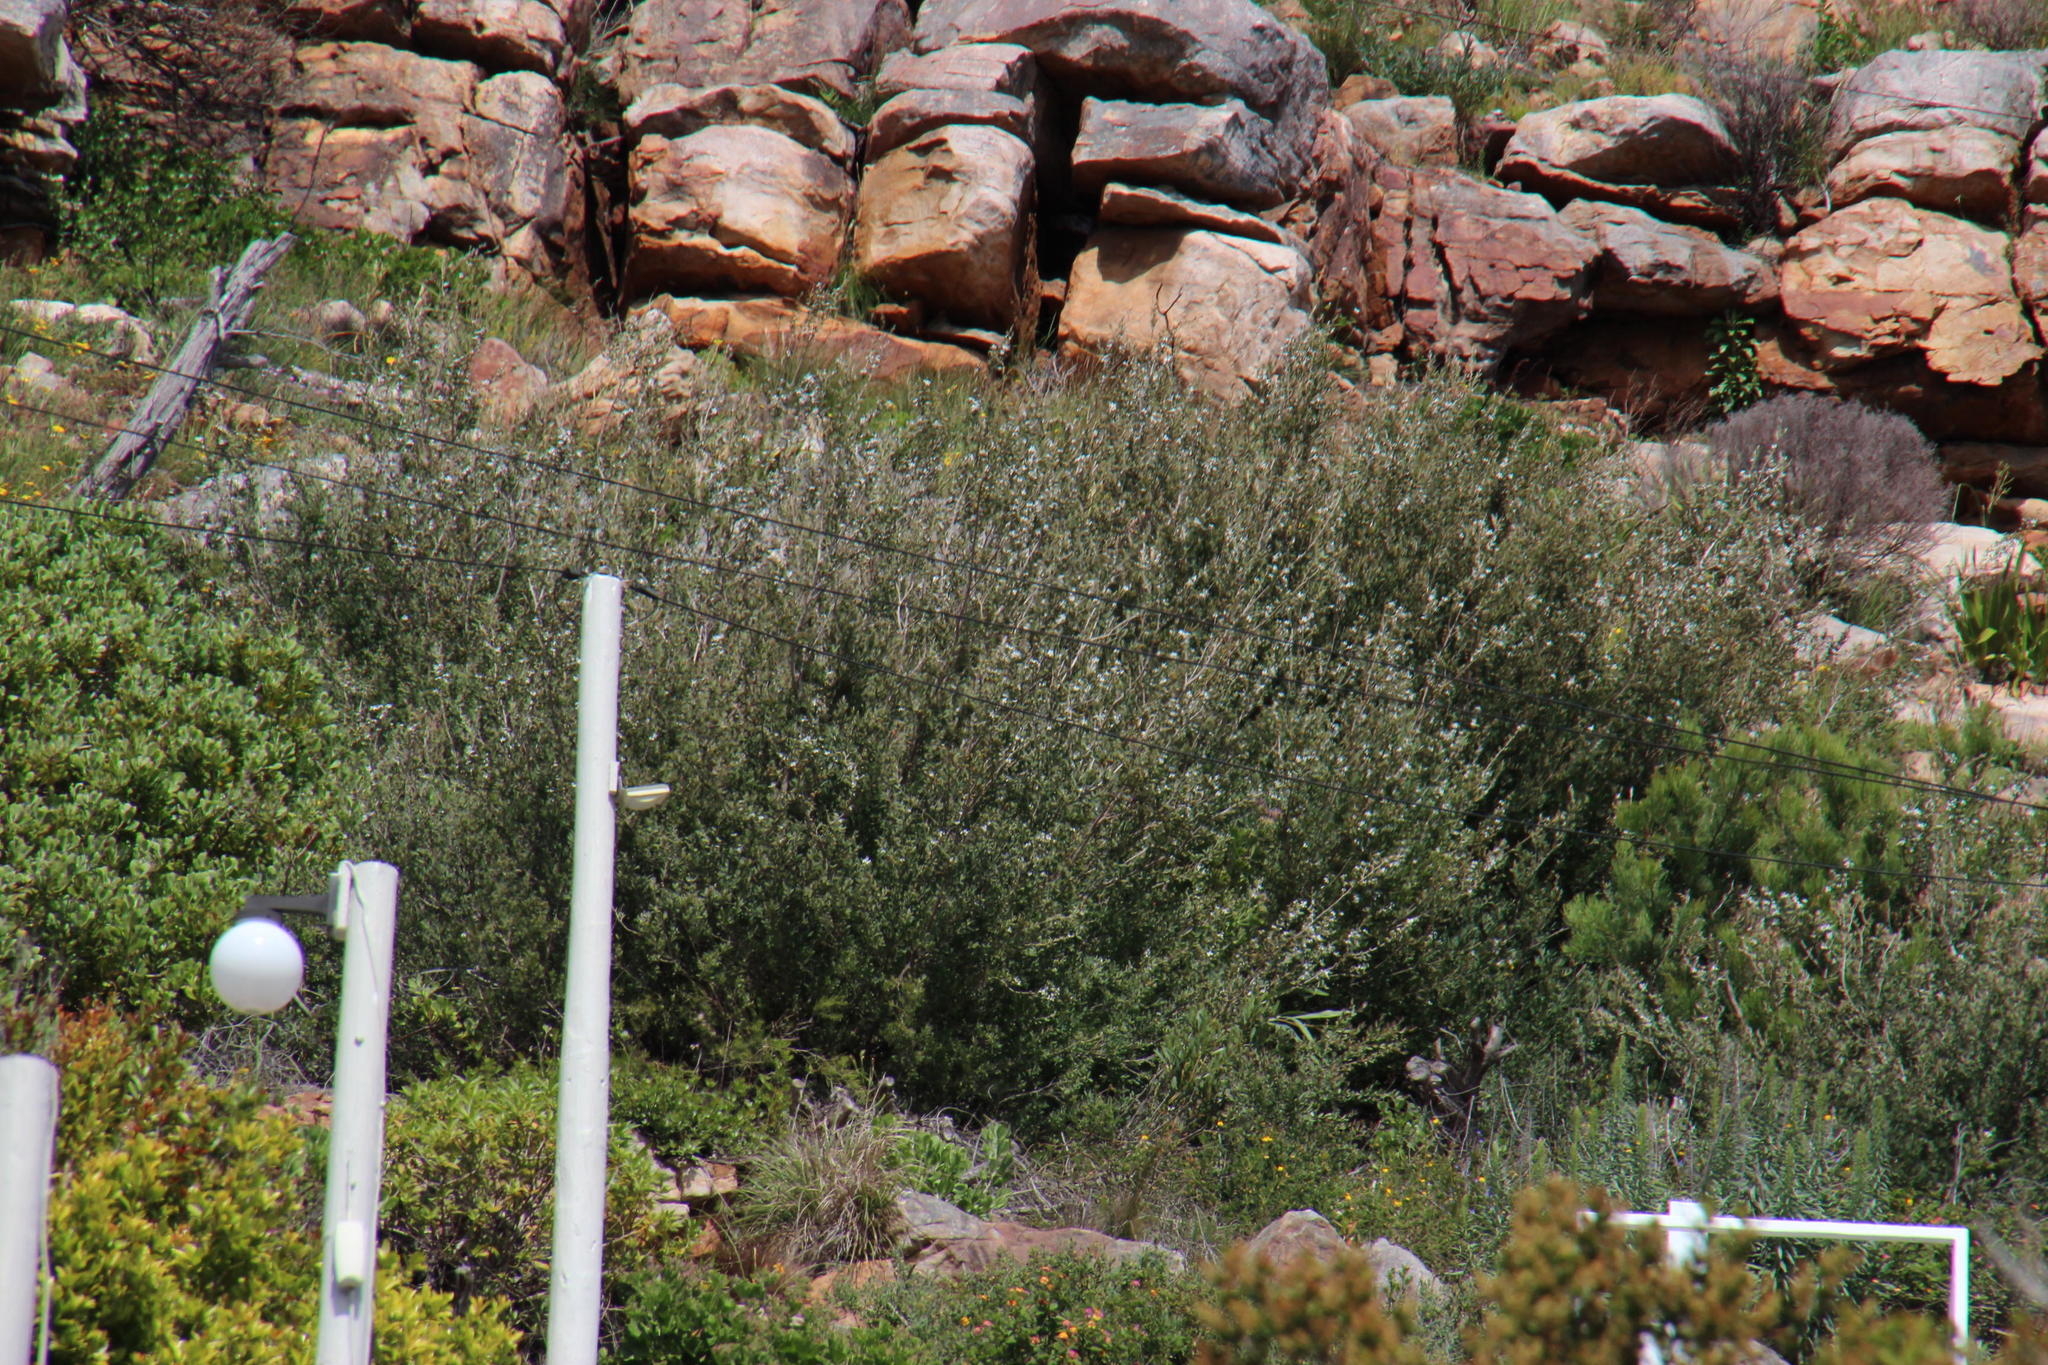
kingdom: Plantae
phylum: Tracheophyta
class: Magnoliopsida
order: Myrtales
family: Myrtaceae
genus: Leptospermum
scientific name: Leptospermum laevigatum
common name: Australian teatree
